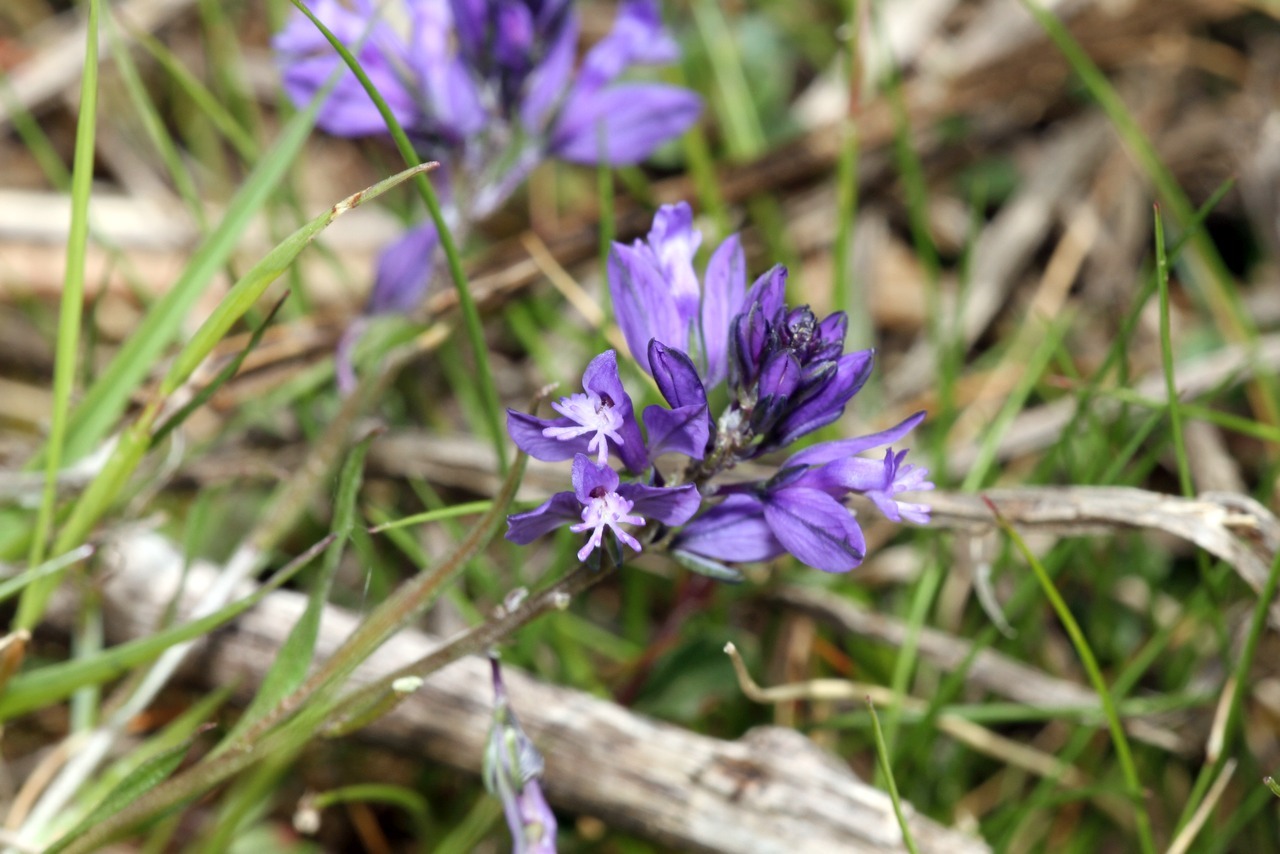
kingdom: Plantae
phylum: Tracheophyta
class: Magnoliopsida
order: Fabales
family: Polygalaceae
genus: Polygala
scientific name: Polygala vulgaris
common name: Common milkwort
